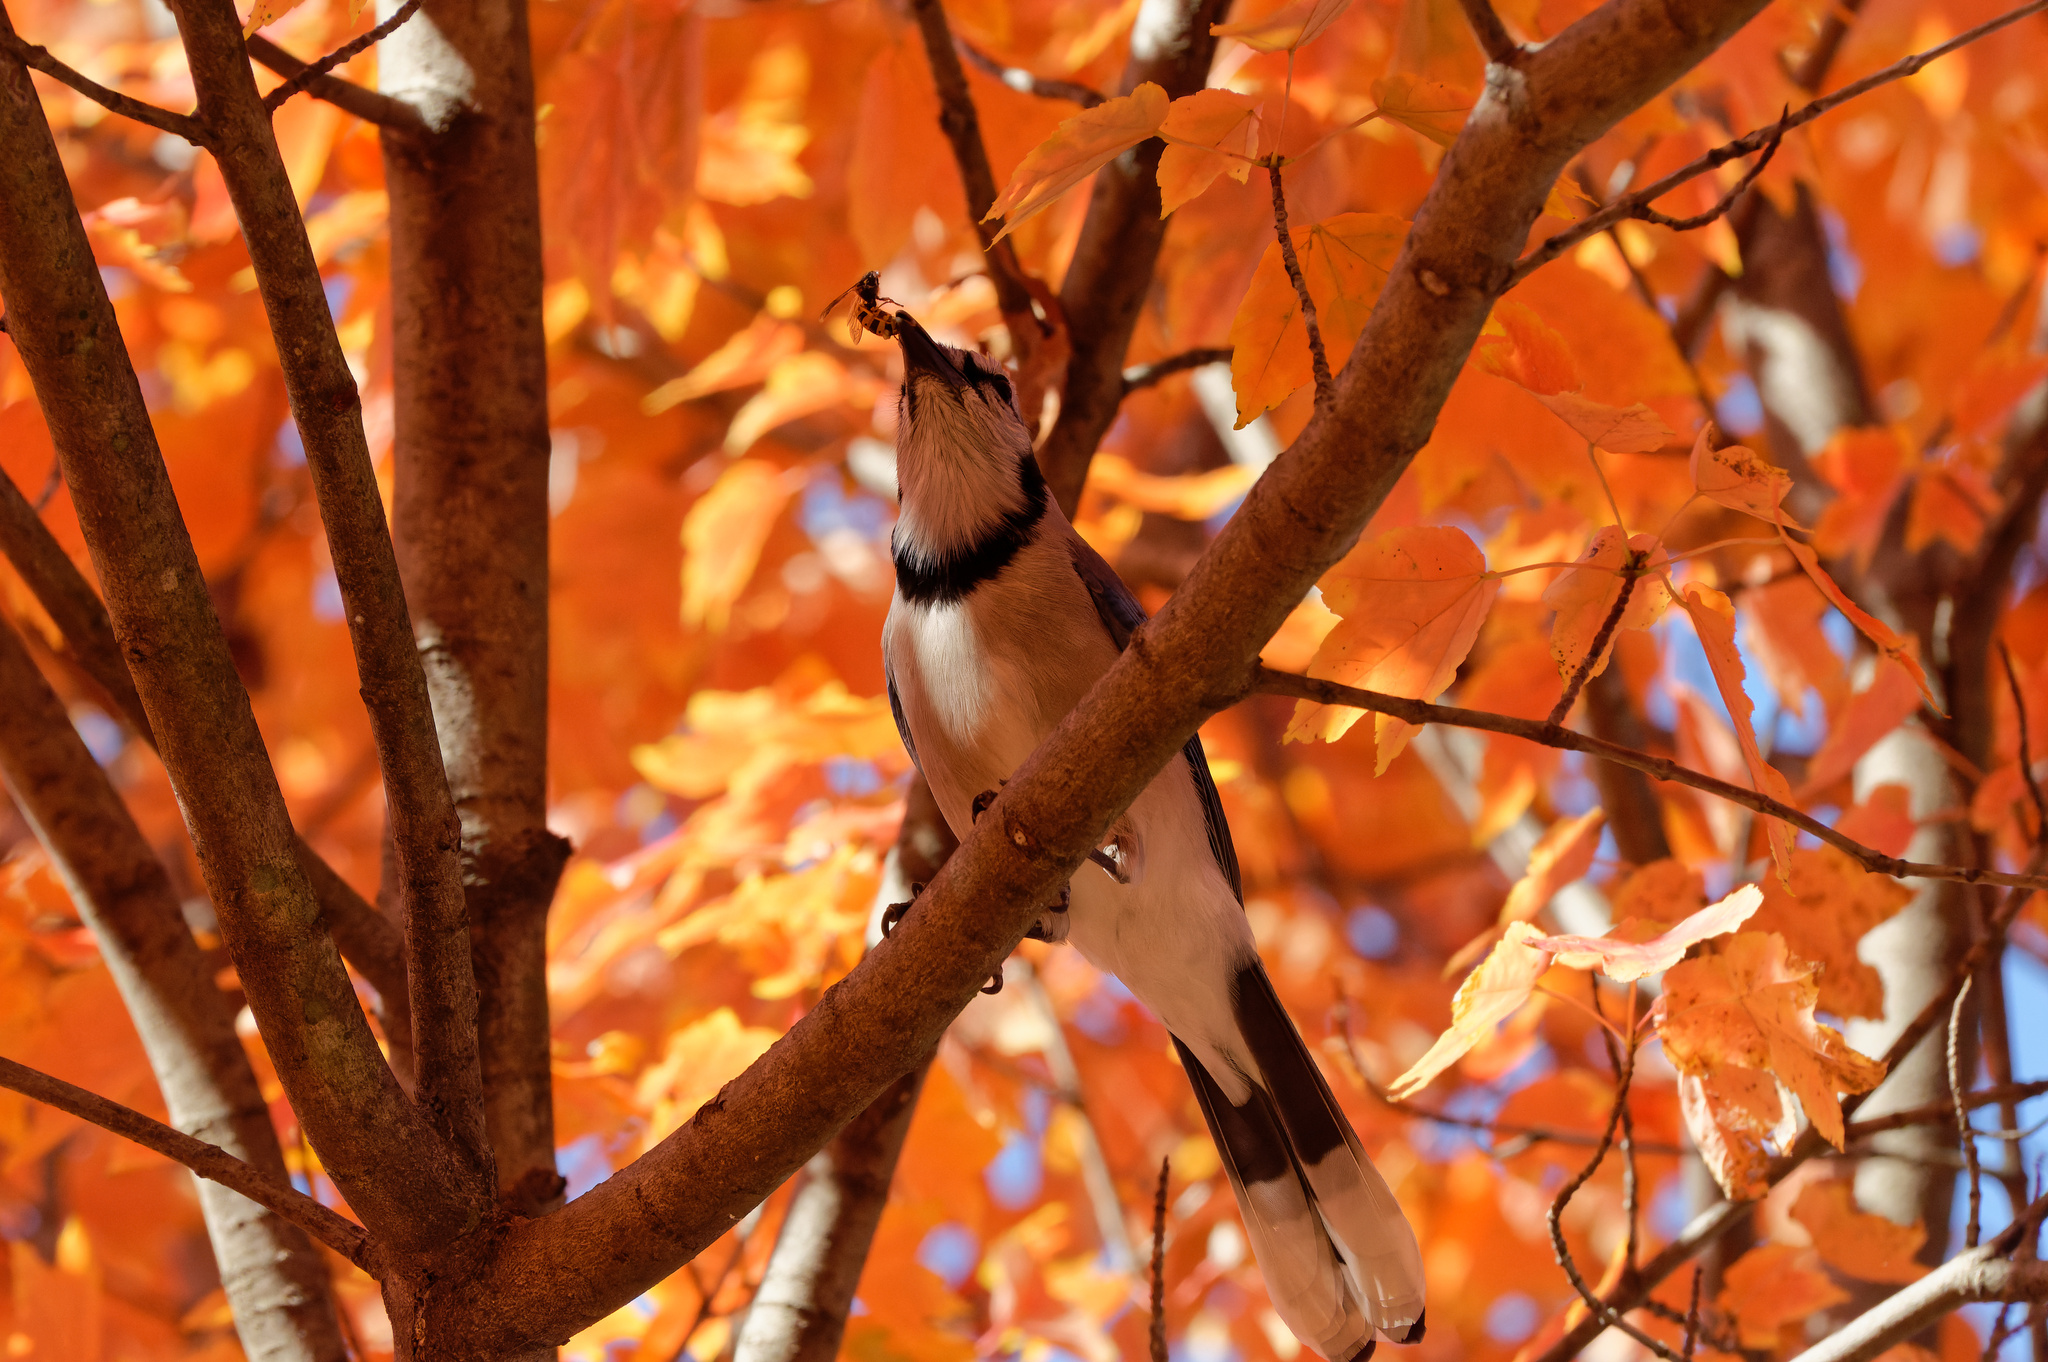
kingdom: Animalia
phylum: Chordata
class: Aves
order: Passeriformes
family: Corvidae
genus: Cyanocitta
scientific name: Cyanocitta cristata
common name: Blue jay
